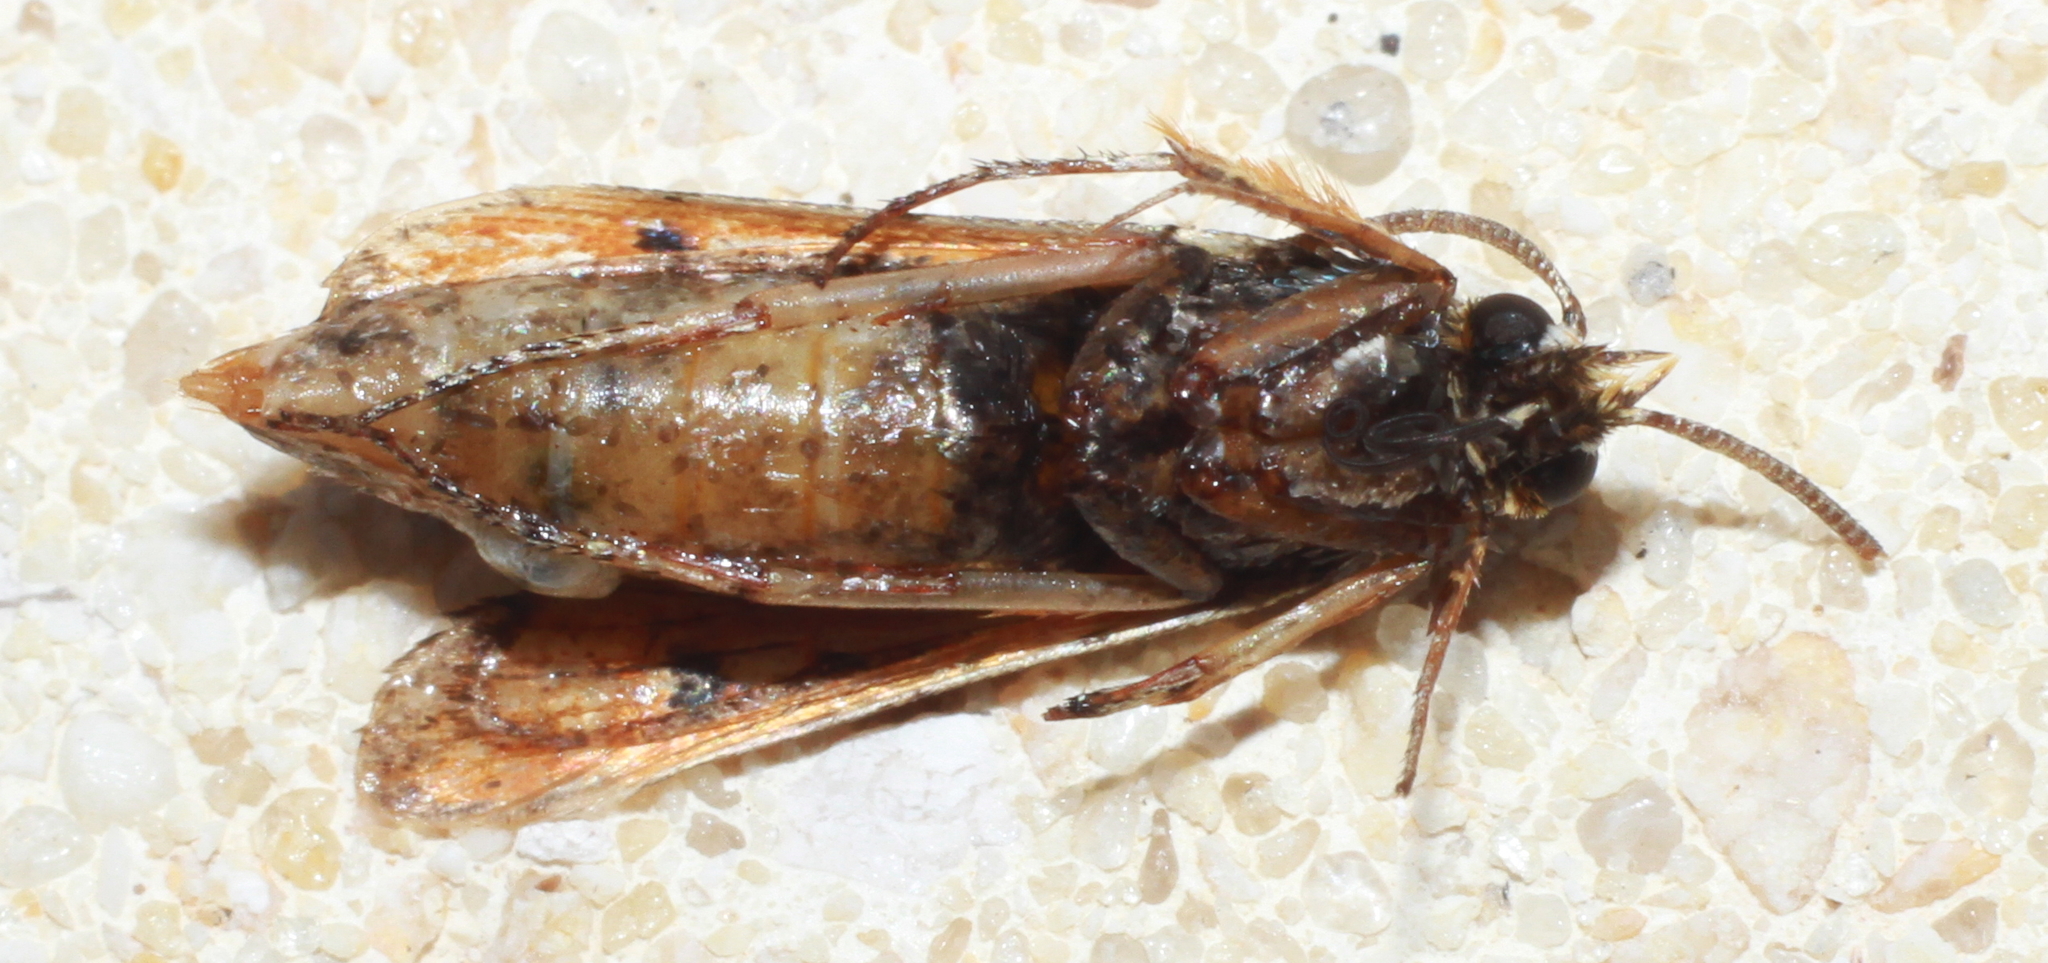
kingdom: Animalia
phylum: Arthropoda
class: Insecta
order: Lepidoptera
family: Sesiidae
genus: Pyropteron
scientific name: Pyropteron chrysidiforme
